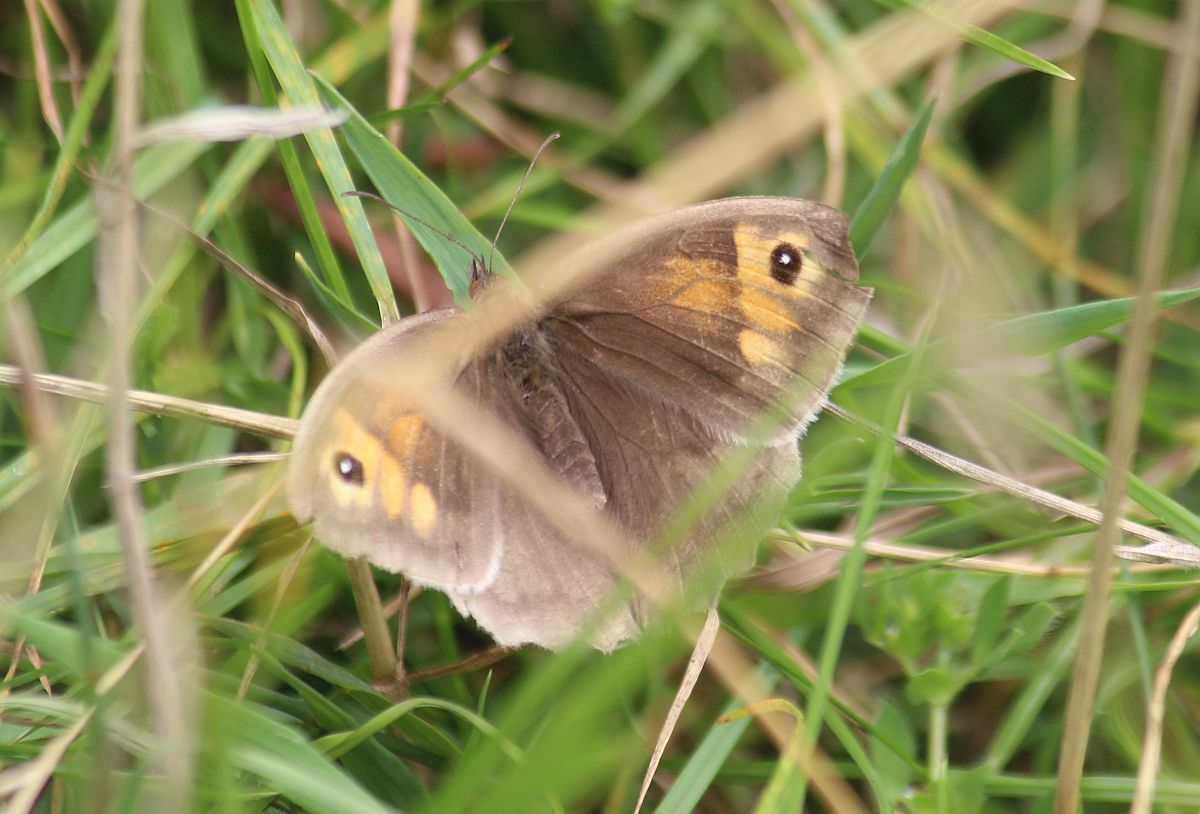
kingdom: Animalia
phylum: Arthropoda
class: Insecta
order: Lepidoptera
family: Nymphalidae
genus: Maniola
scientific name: Maniola jurtina
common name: Meadow brown
